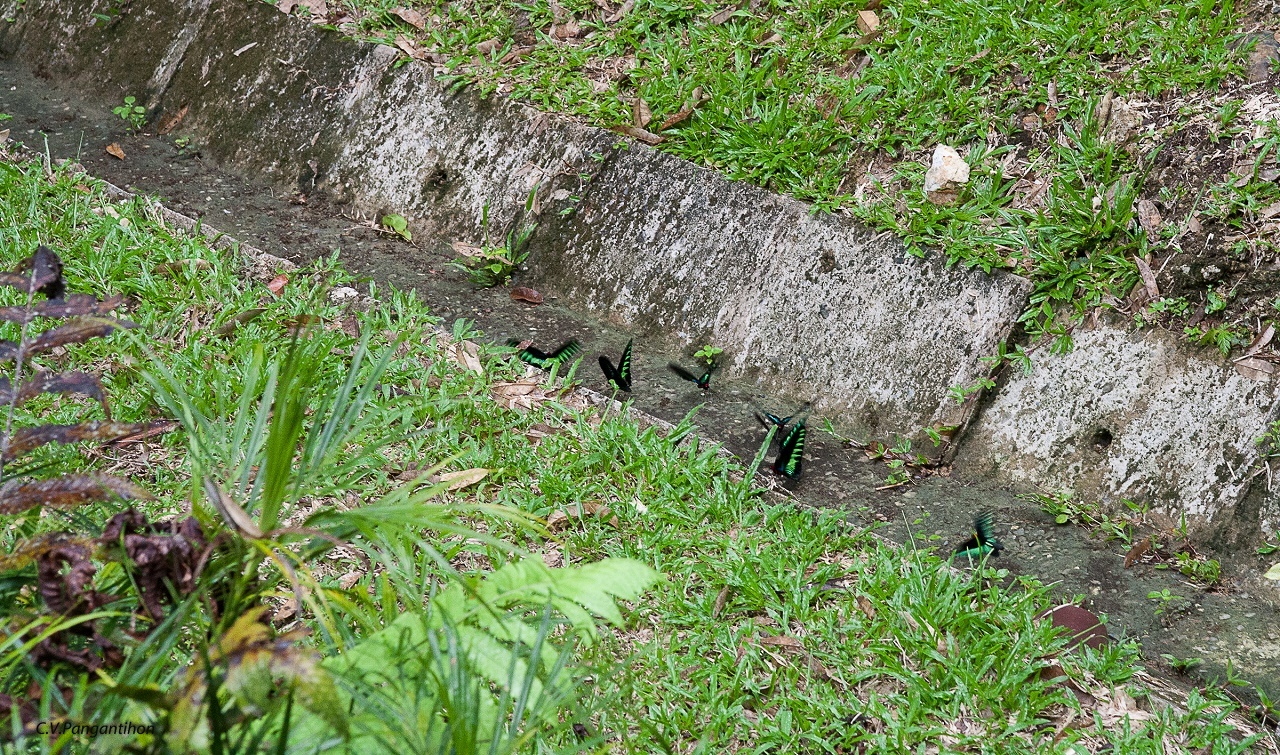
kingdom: Animalia
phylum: Arthropoda
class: Insecta
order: Lepidoptera
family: Papilionidae
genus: Trogonoptera
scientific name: Trogonoptera brookiana
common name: Raja brooke's birdwing
